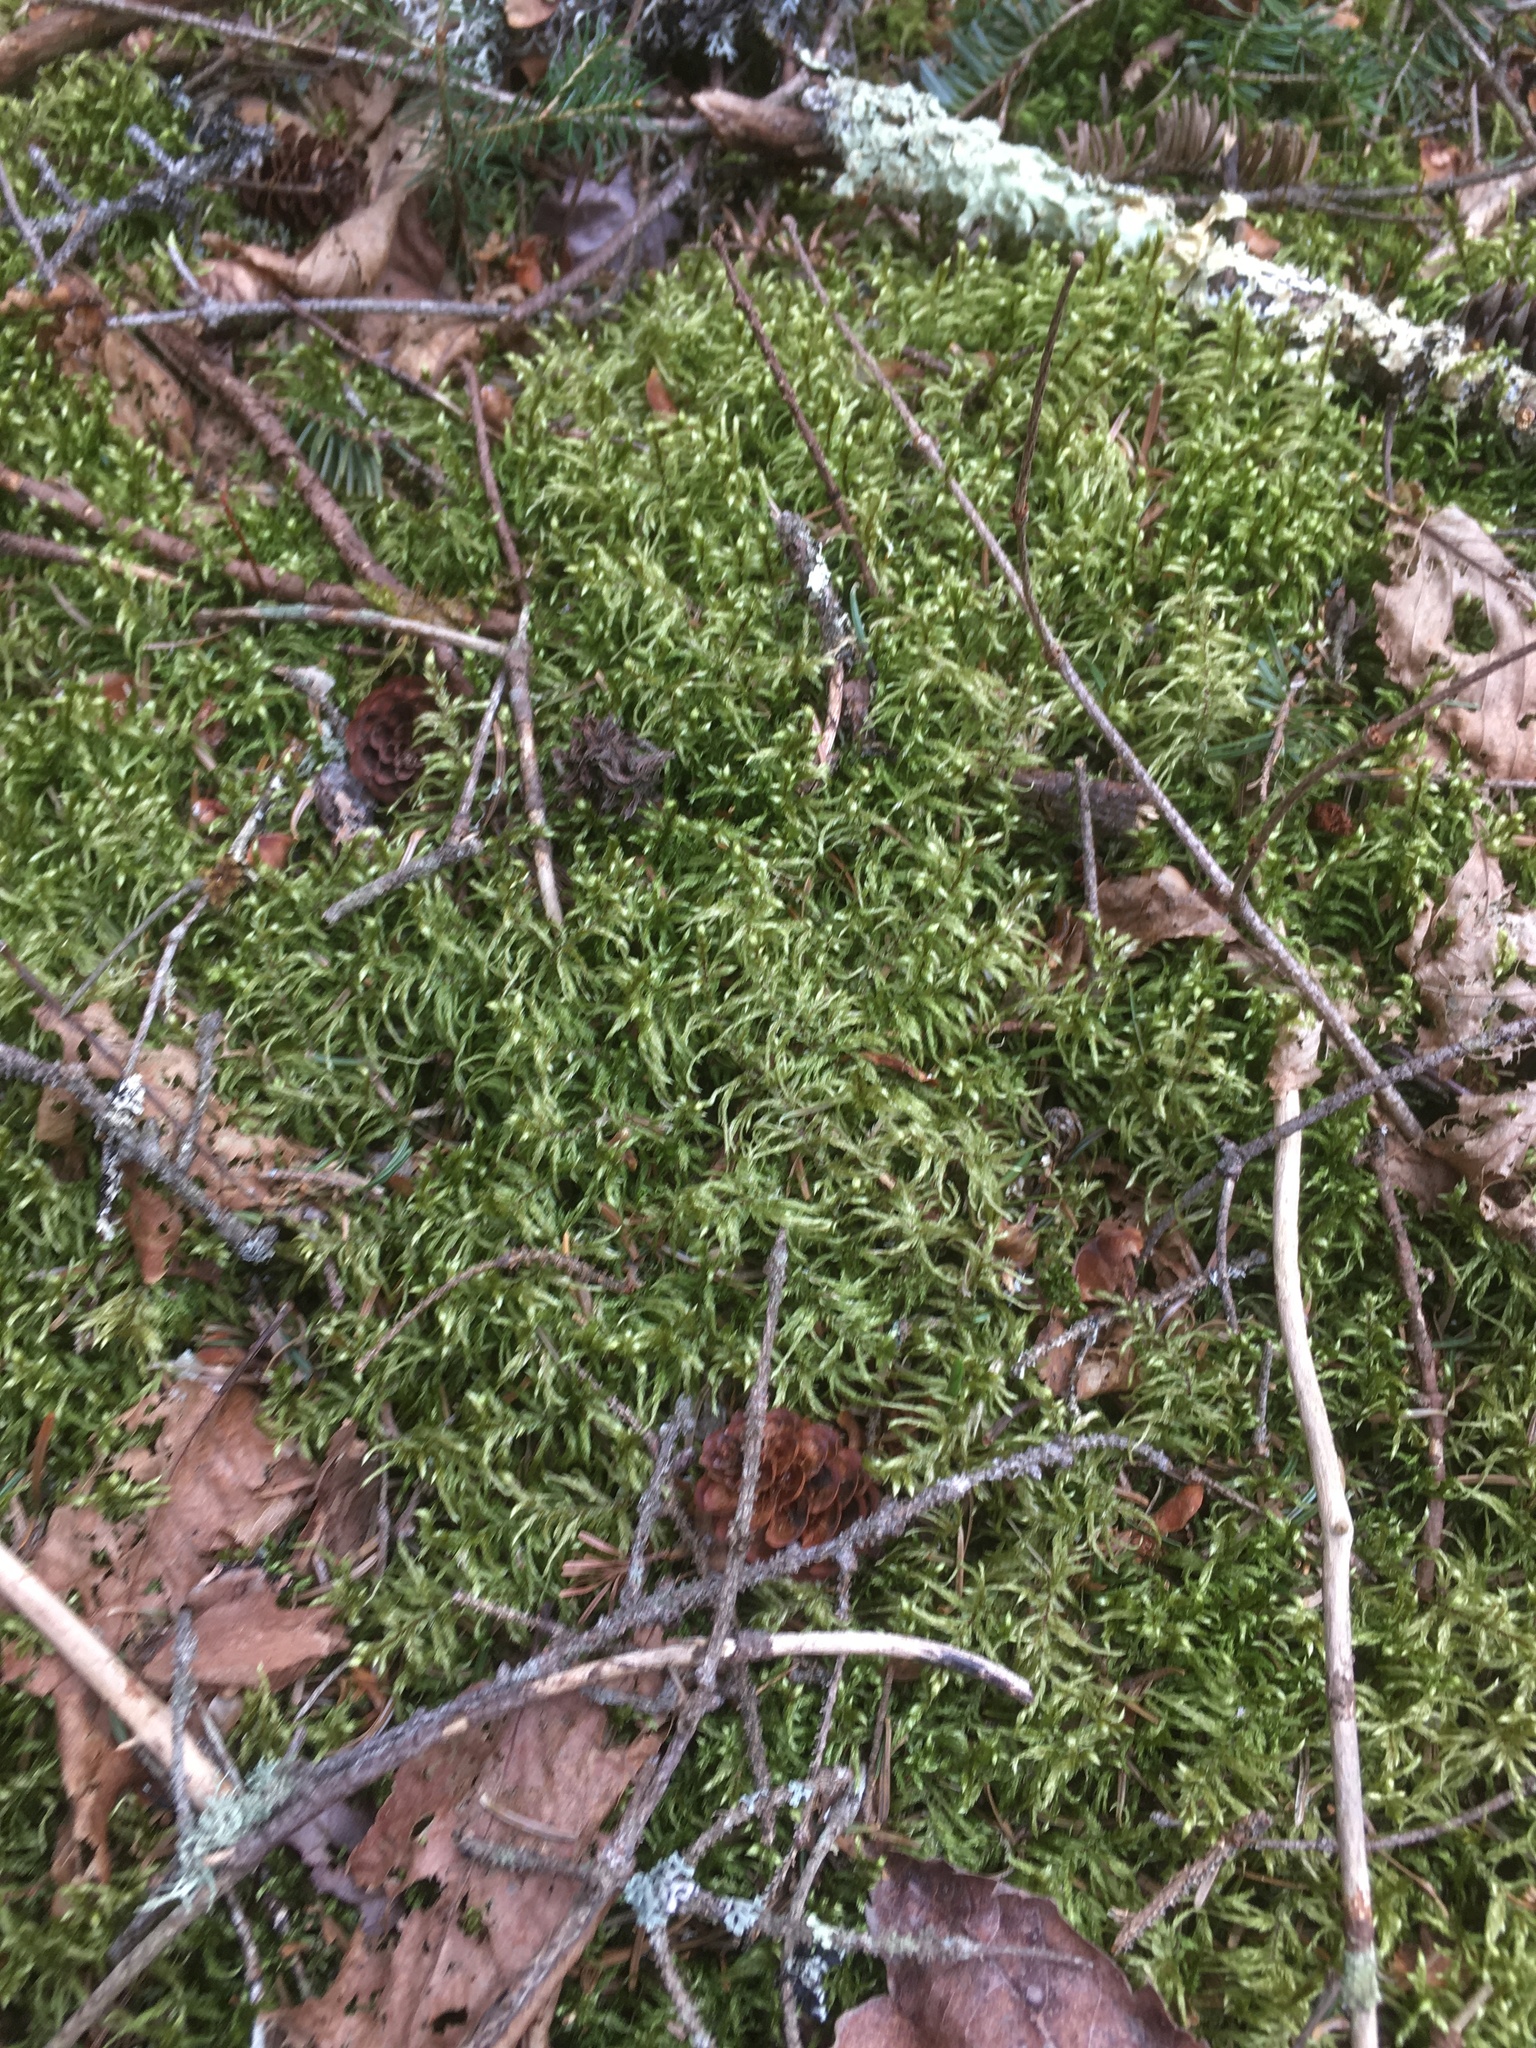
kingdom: Plantae
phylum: Bryophyta
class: Bryopsida
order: Hypnales
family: Hylocomiaceae
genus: Pleurozium
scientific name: Pleurozium schreberi
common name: Red-stemmed feather moss
